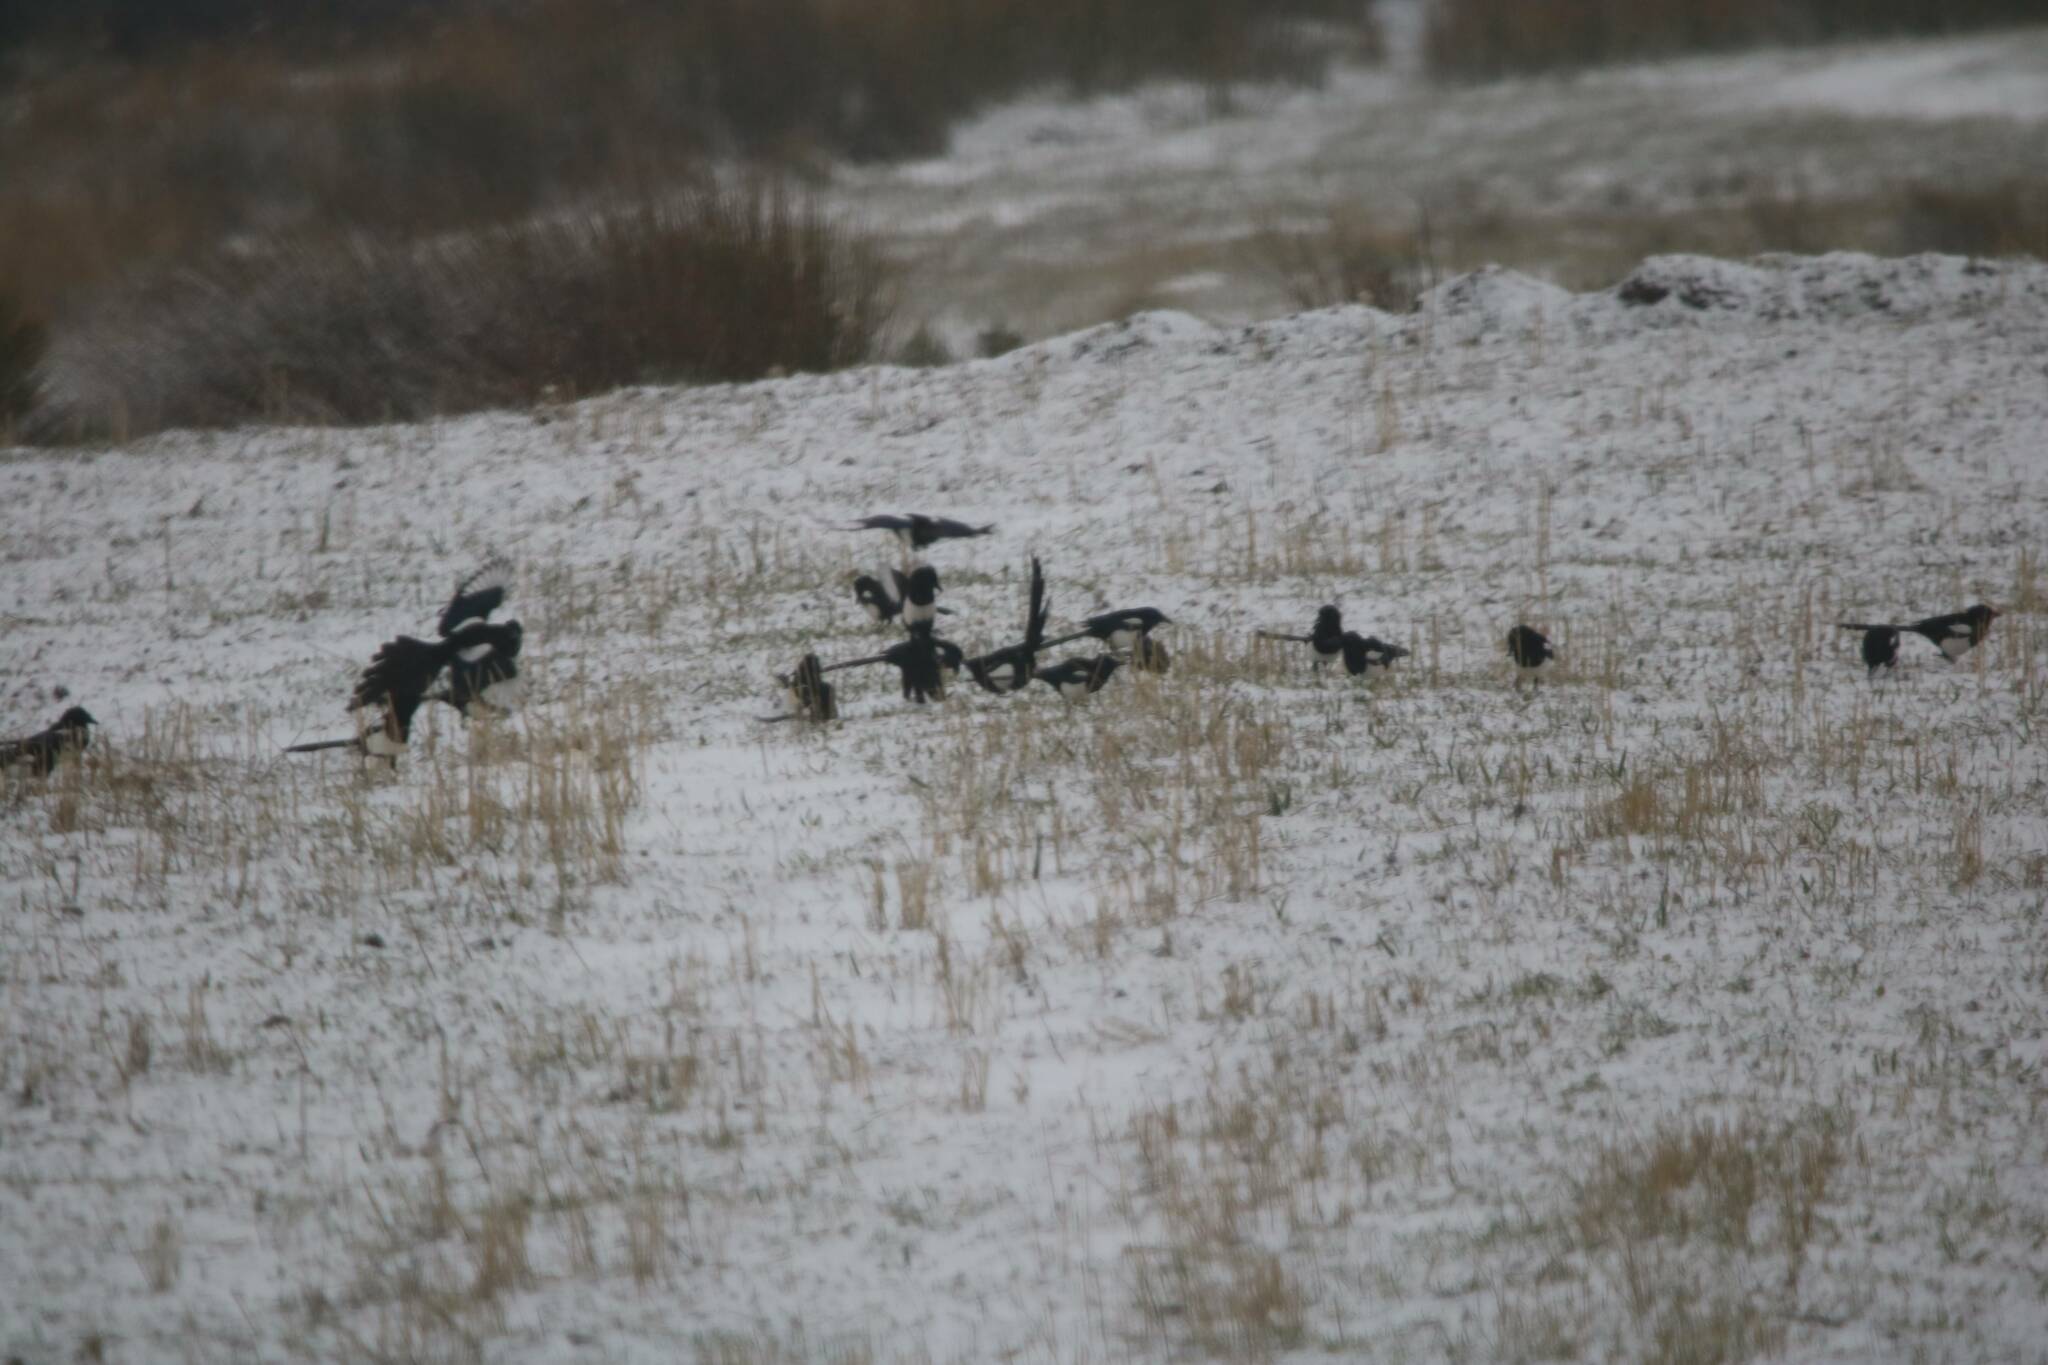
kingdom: Animalia
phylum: Chordata
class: Aves
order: Passeriformes
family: Corvidae
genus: Pica
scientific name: Pica mauritanica
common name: Maghreb magpie
